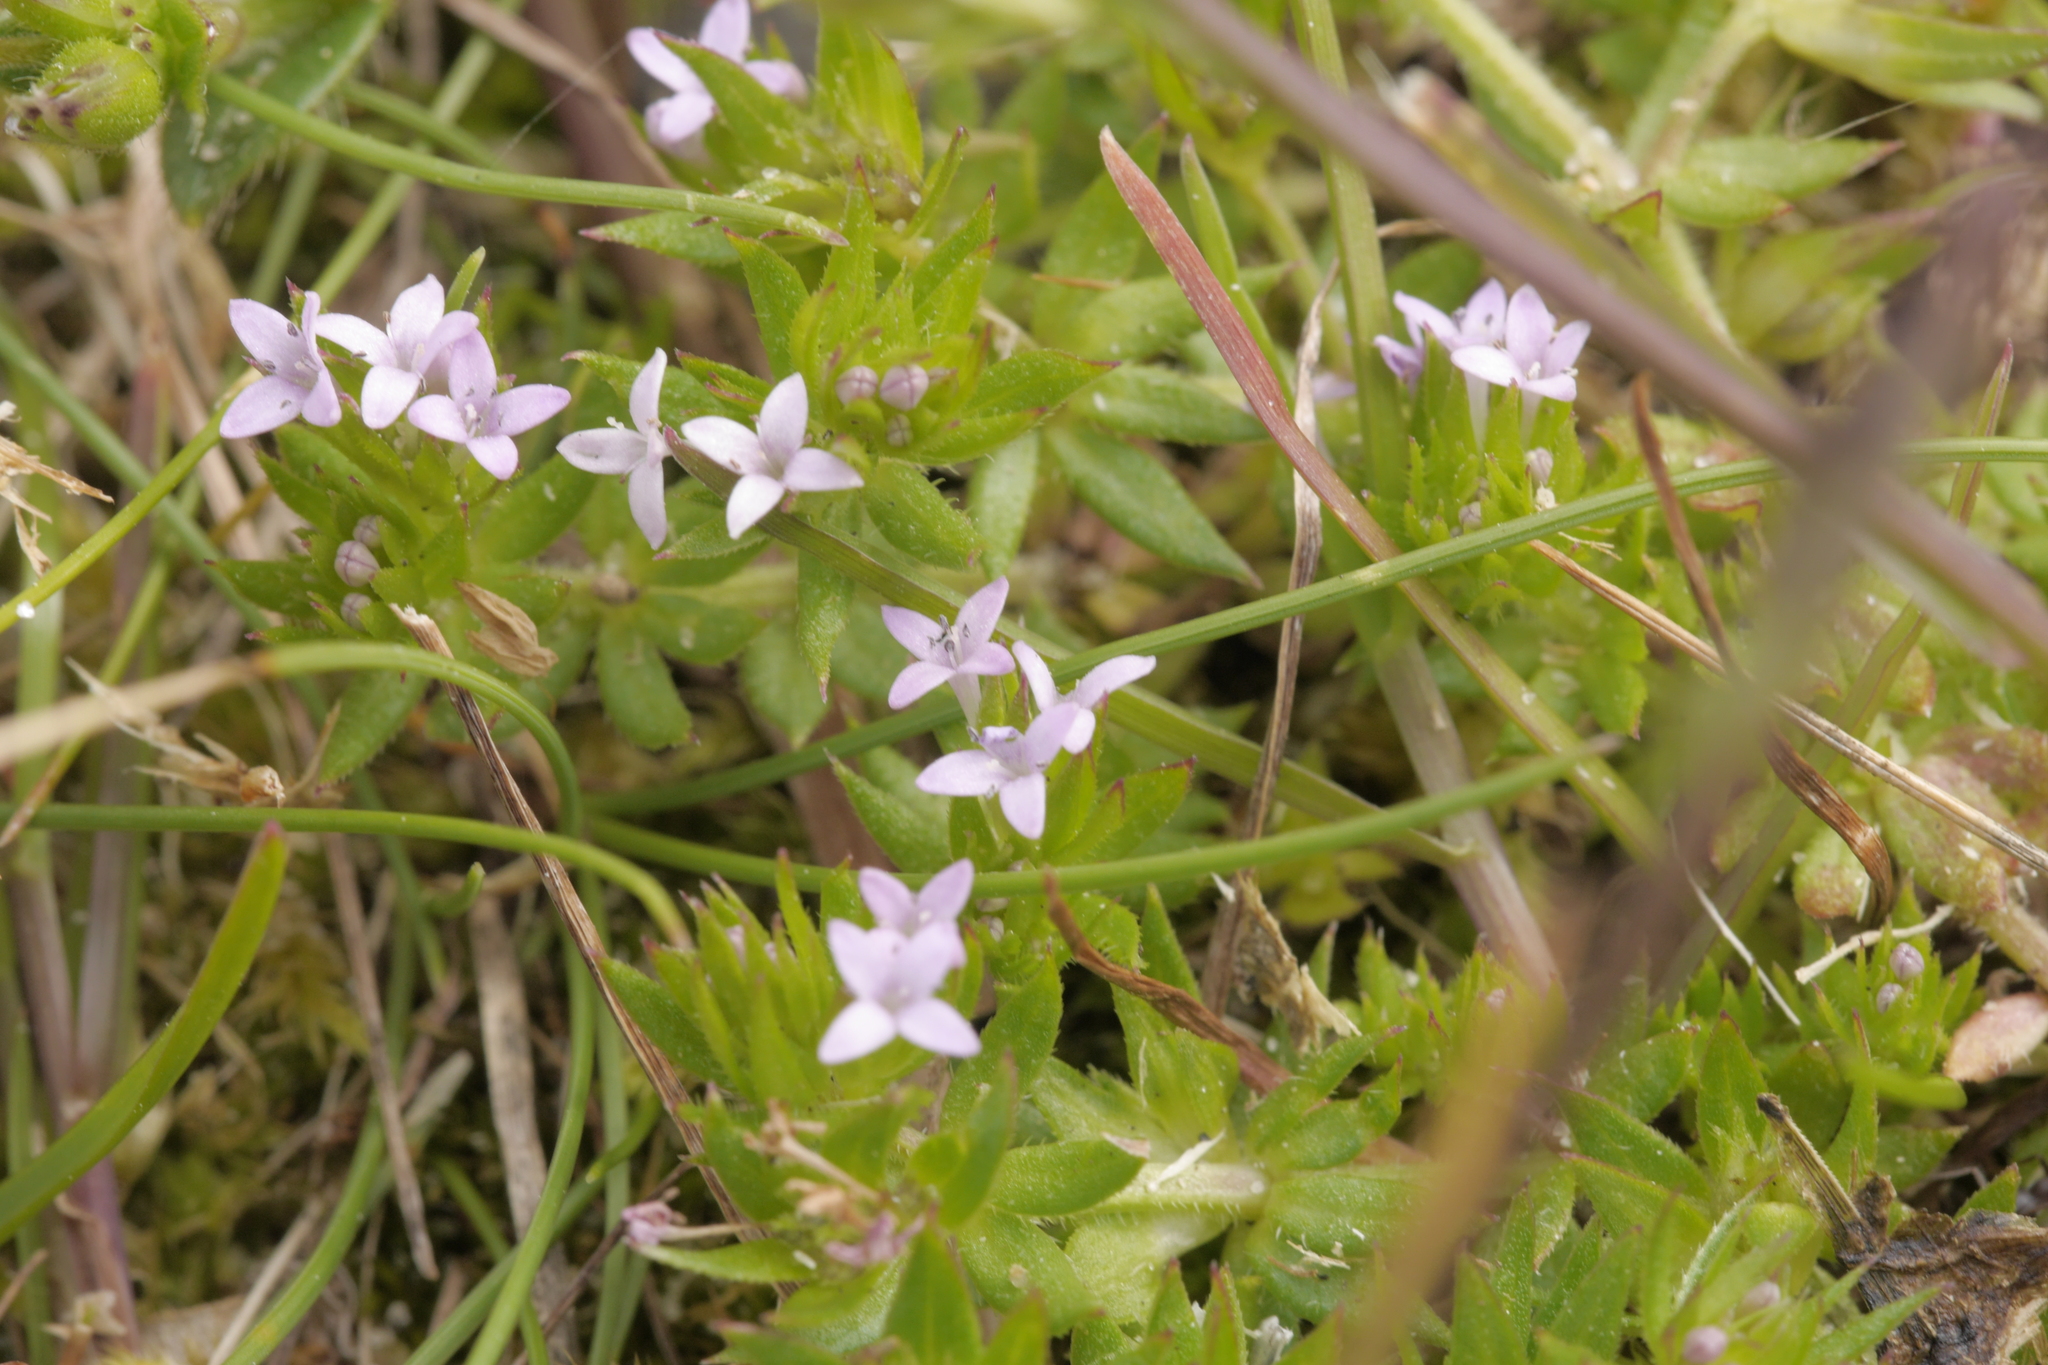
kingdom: Plantae
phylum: Tracheophyta
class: Magnoliopsida
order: Gentianales
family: Rubiaceae
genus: Sherardia
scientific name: Sherardia arvensis
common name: Field madder
